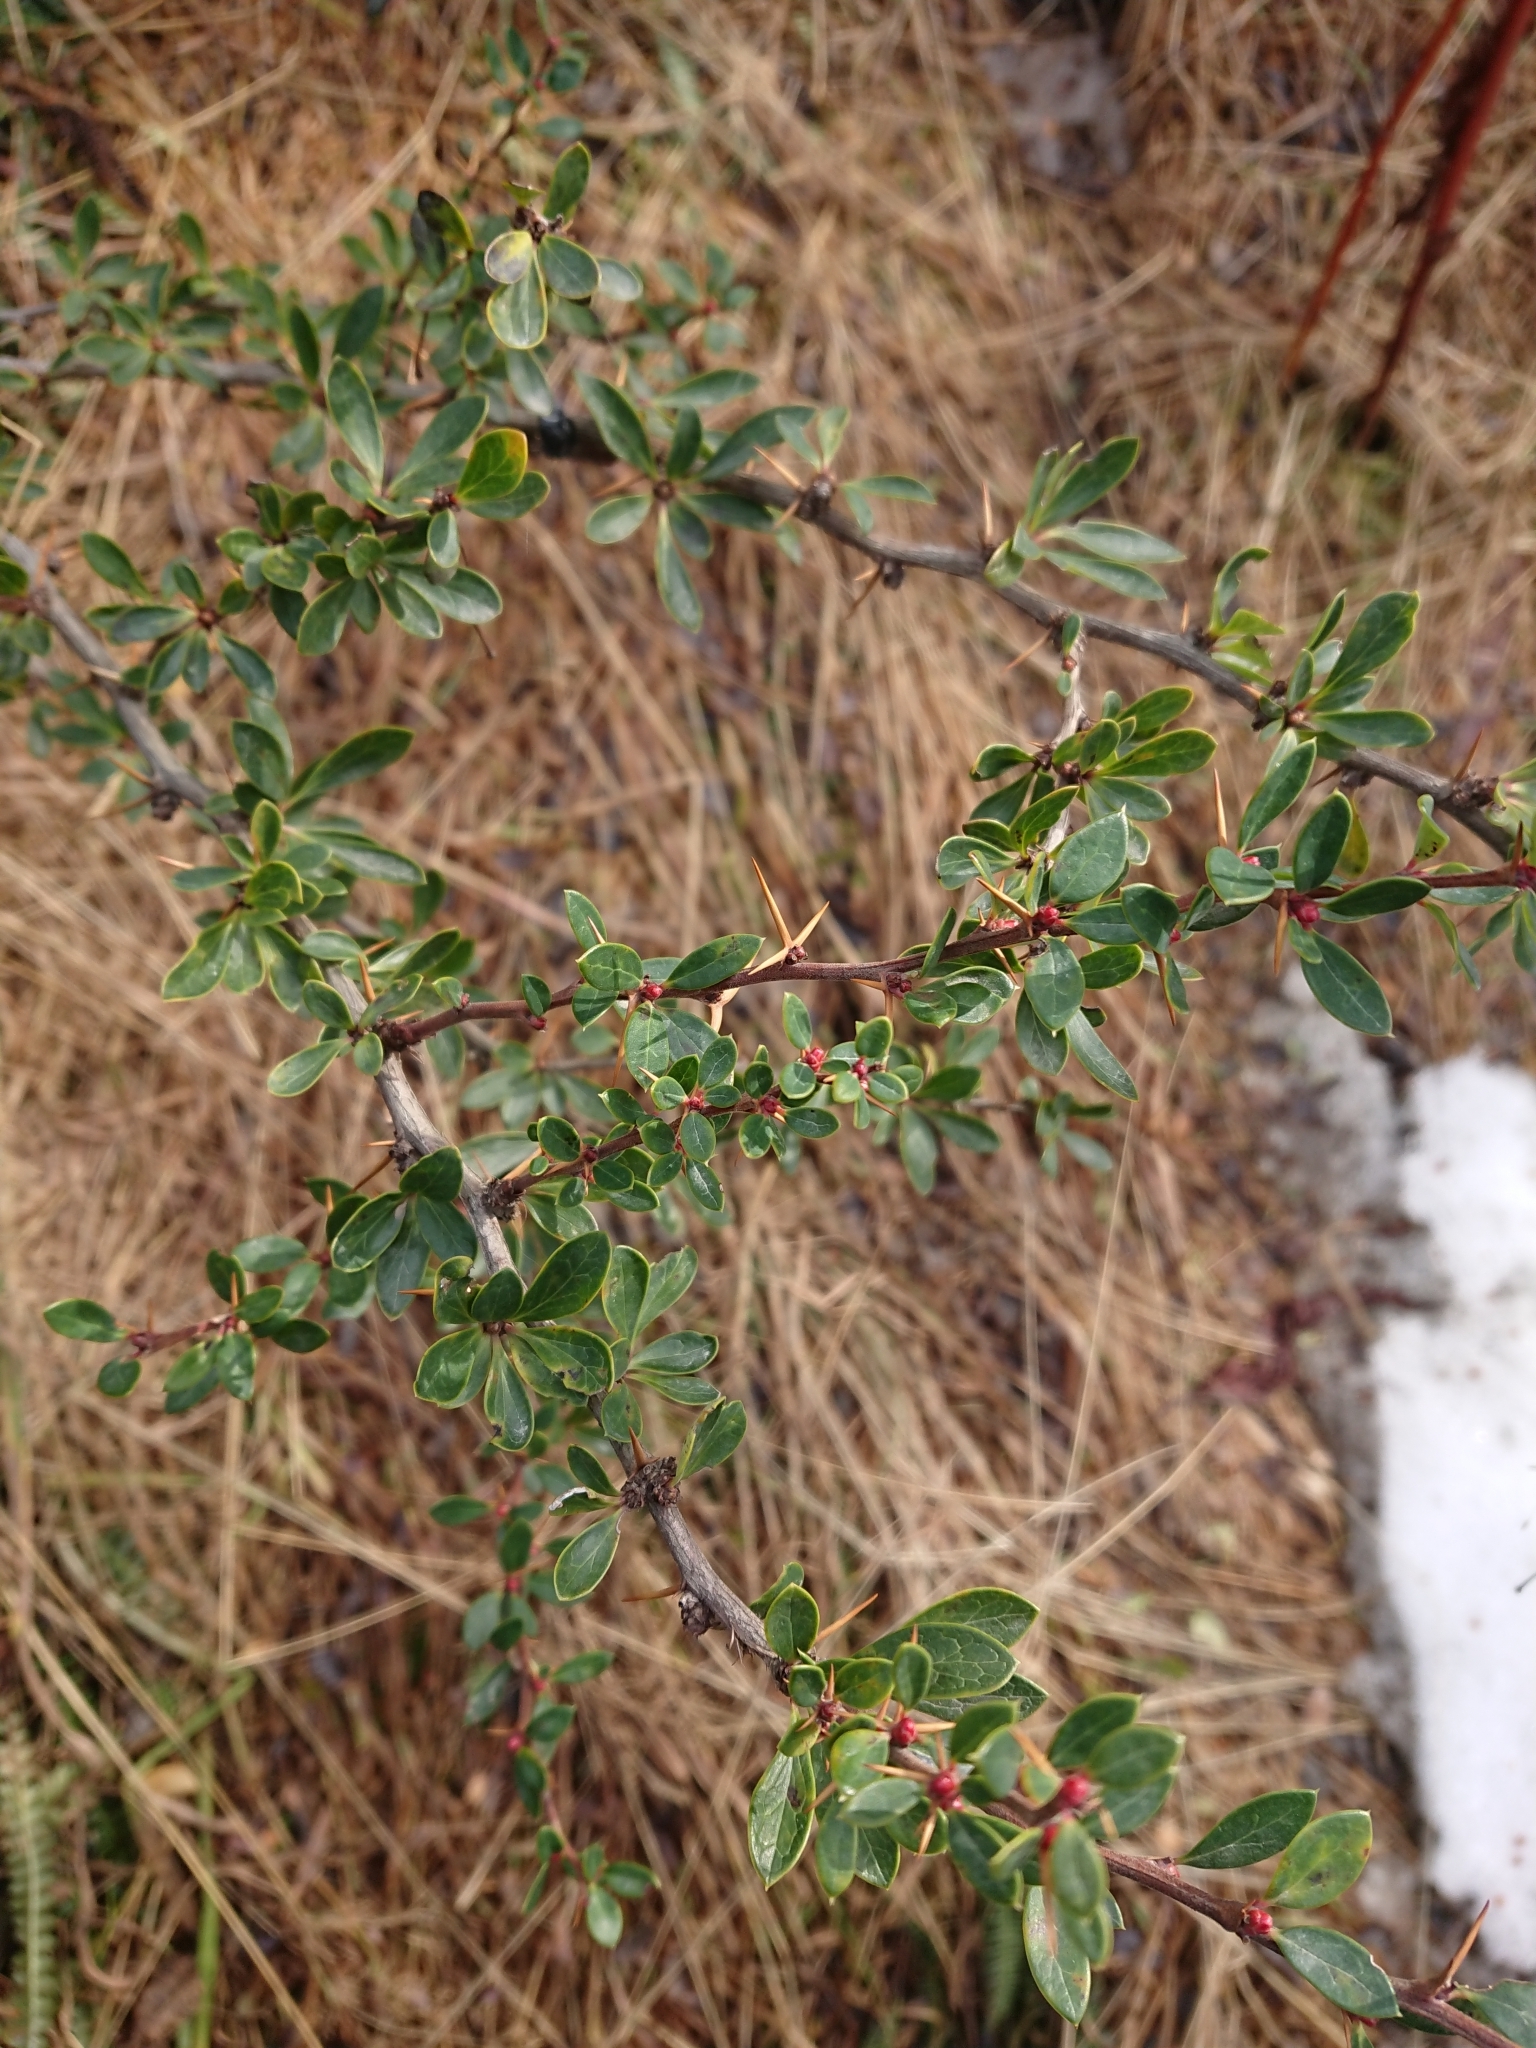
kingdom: Plantae
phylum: Tracheophyta
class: Magnoliopsida
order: Ranunculales
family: Berberidaceae
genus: Berberis
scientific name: Berberis microphylla
